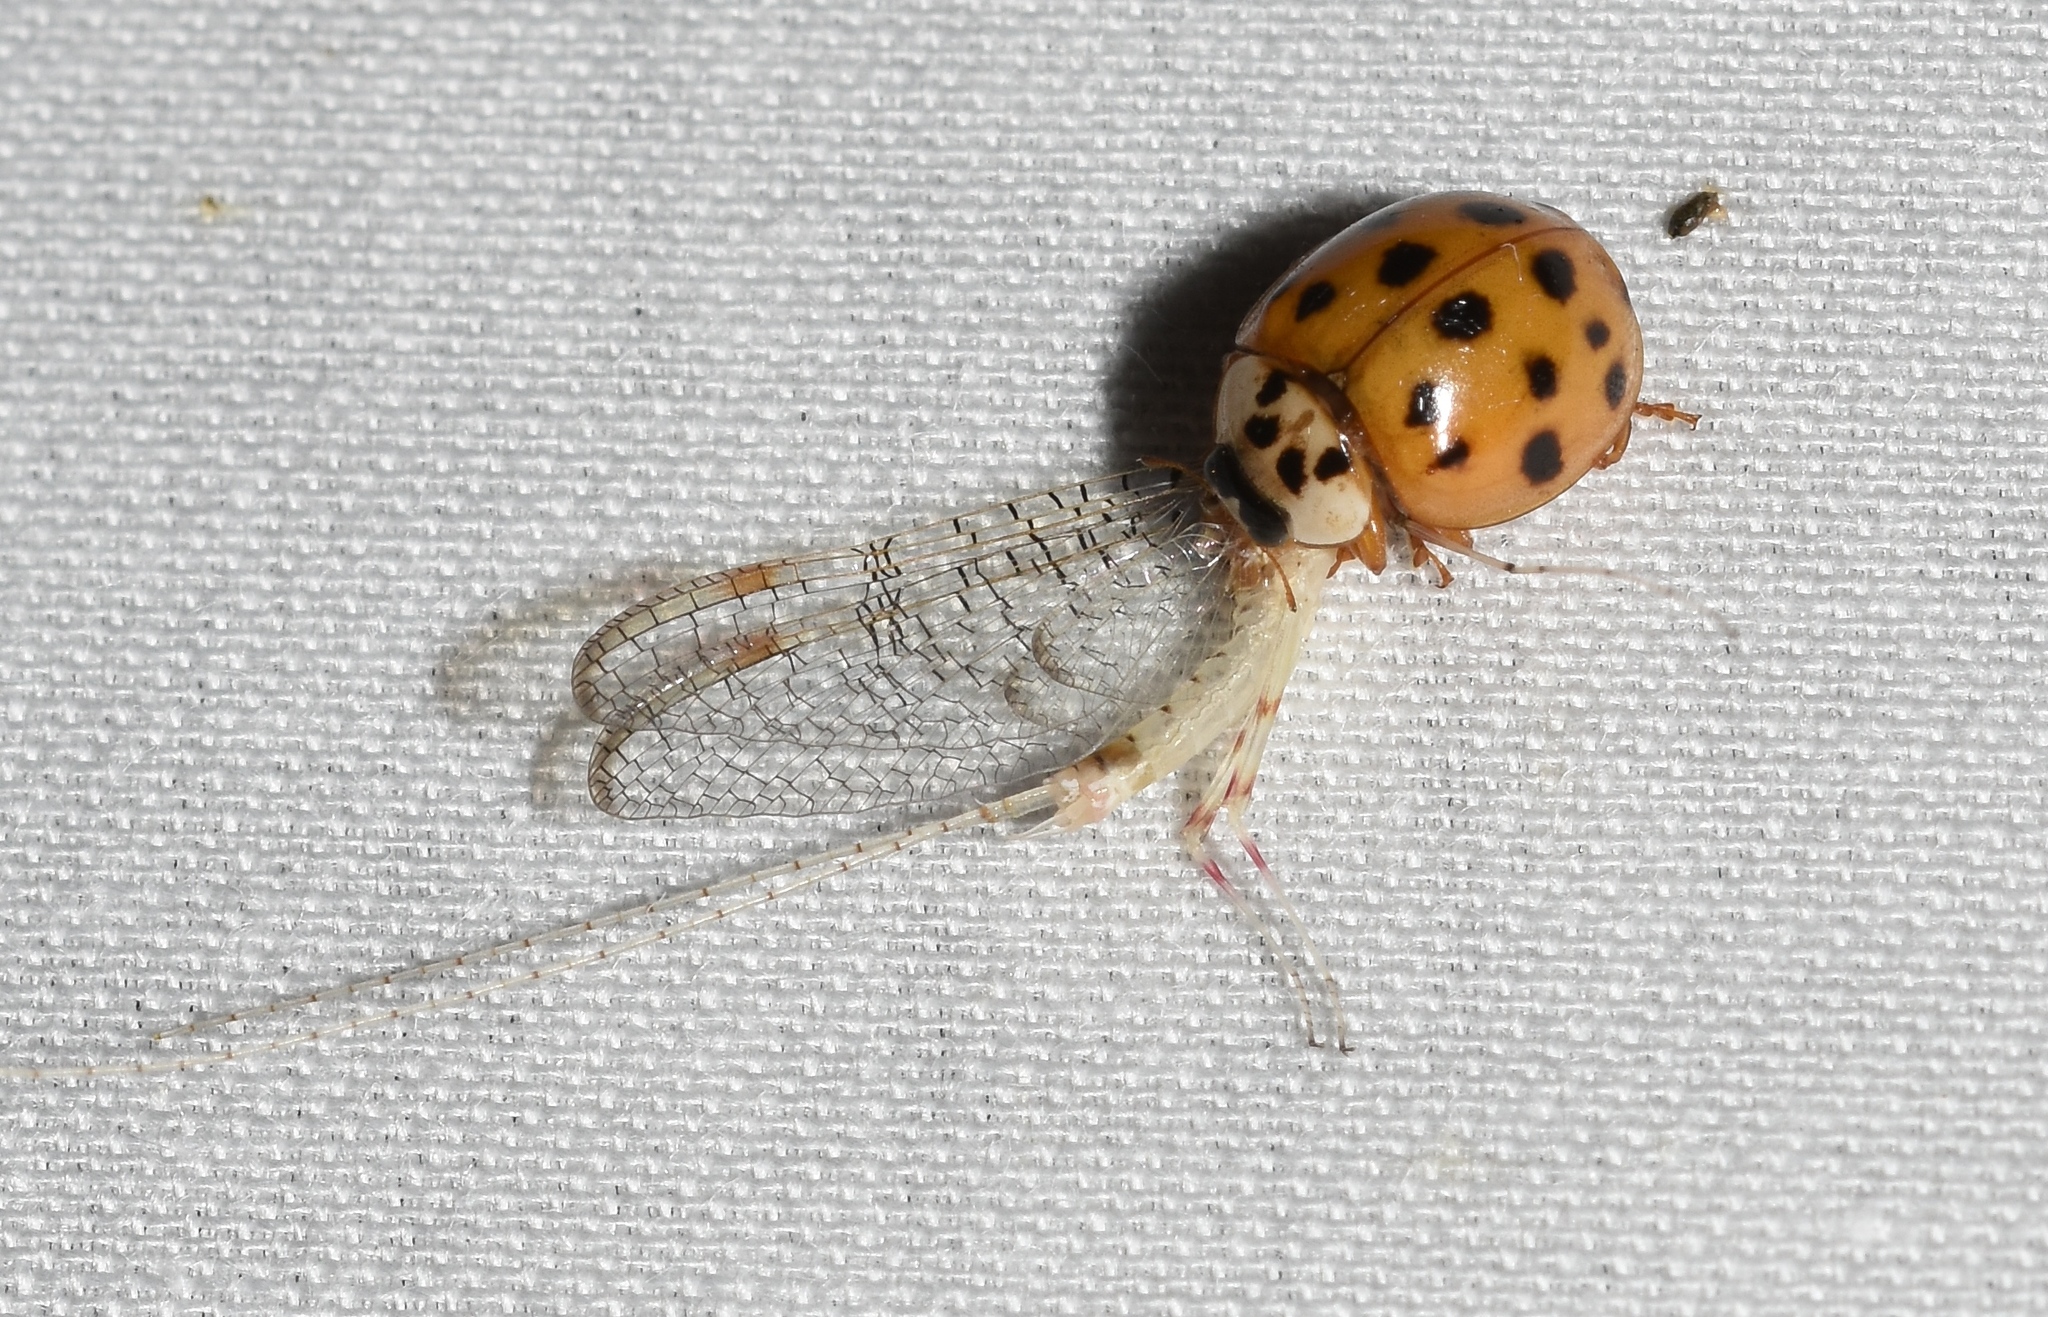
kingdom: Animalia
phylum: Arthropoda
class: Insecta
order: Coleoptera
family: Coccinellidae
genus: Harmonia
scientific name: Harmonia axyridis
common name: Harlequin ladybird
